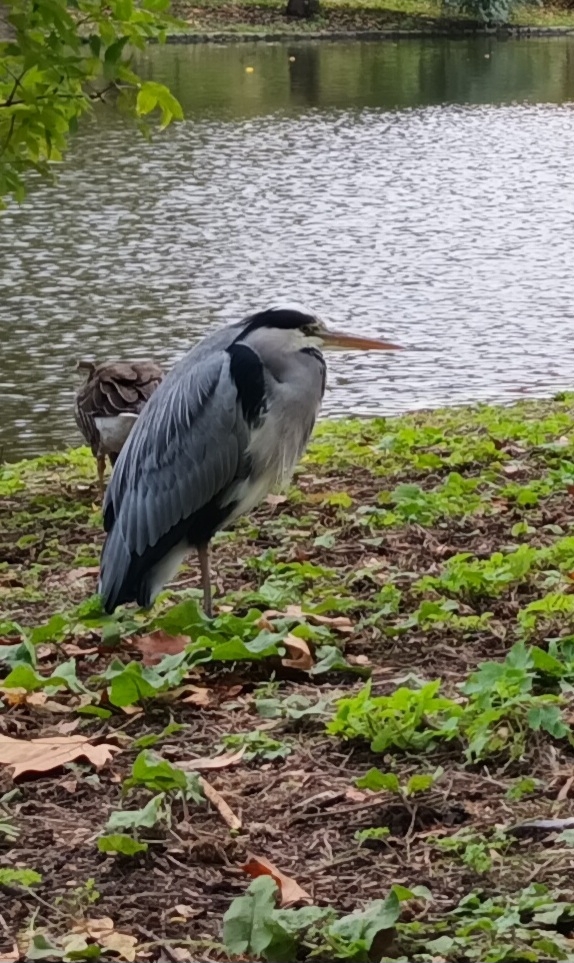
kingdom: Animalia
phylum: Chordata
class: Aves
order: Pelecaniformes
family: Ardeidae
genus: Ardea
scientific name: Ardea cinerea
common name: Grey heron
